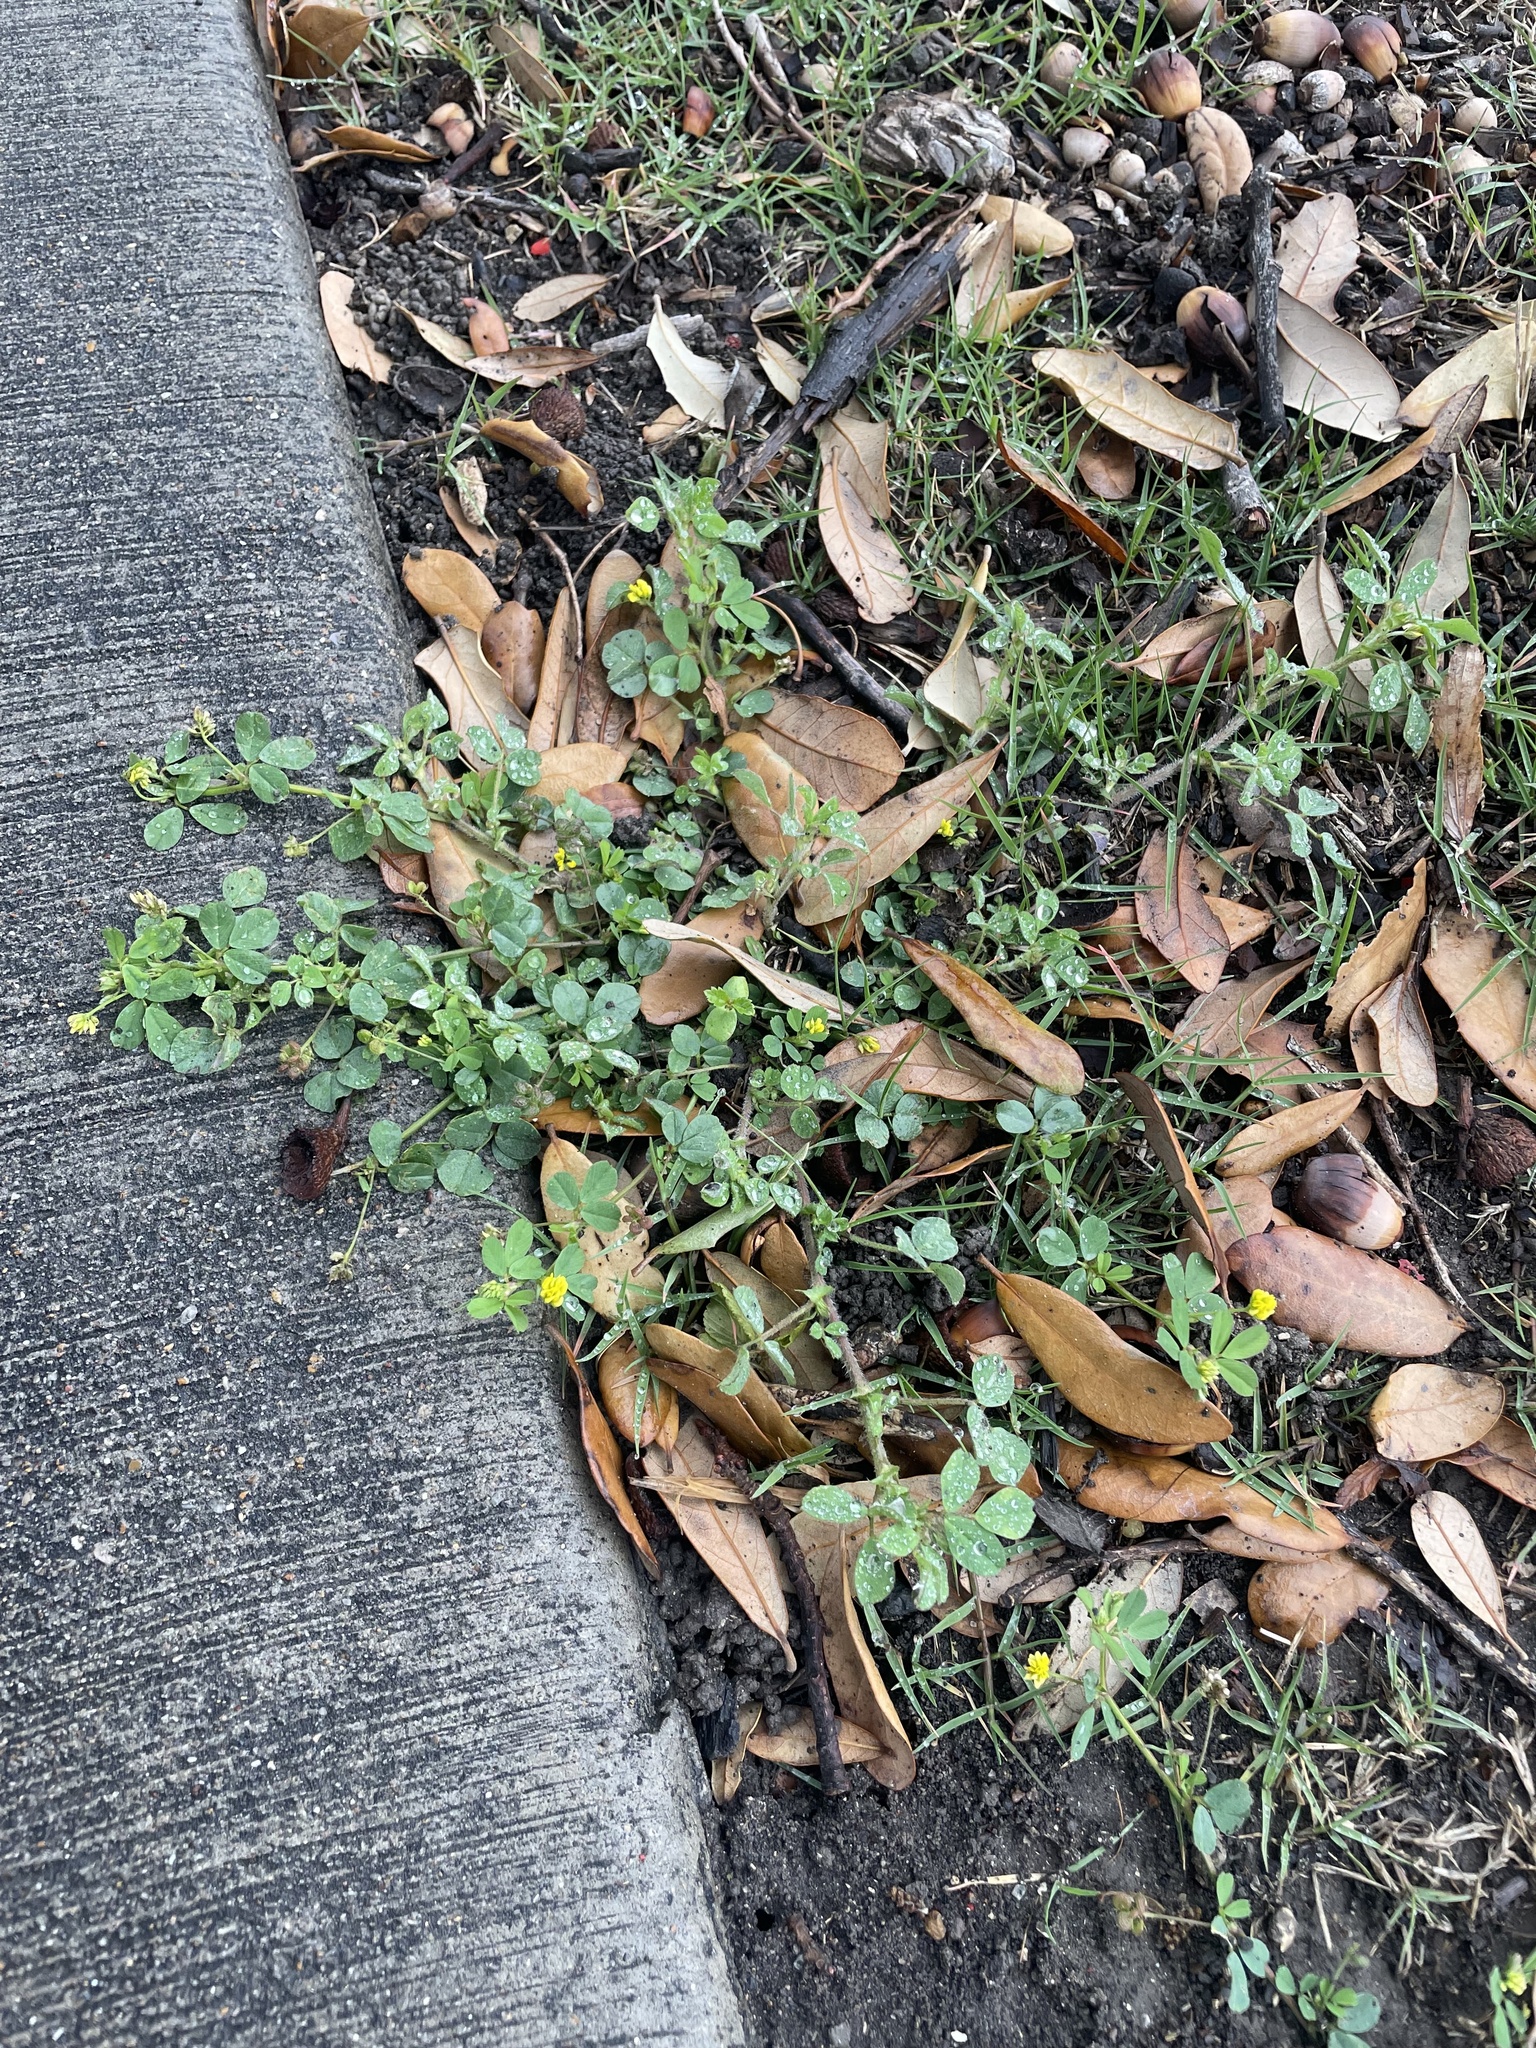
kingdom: Plantae
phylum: Tracheophyta
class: Magnoliopsida
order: Fabales
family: Fabaceae
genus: Medicago
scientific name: Medicago lupulina
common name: Black medick
